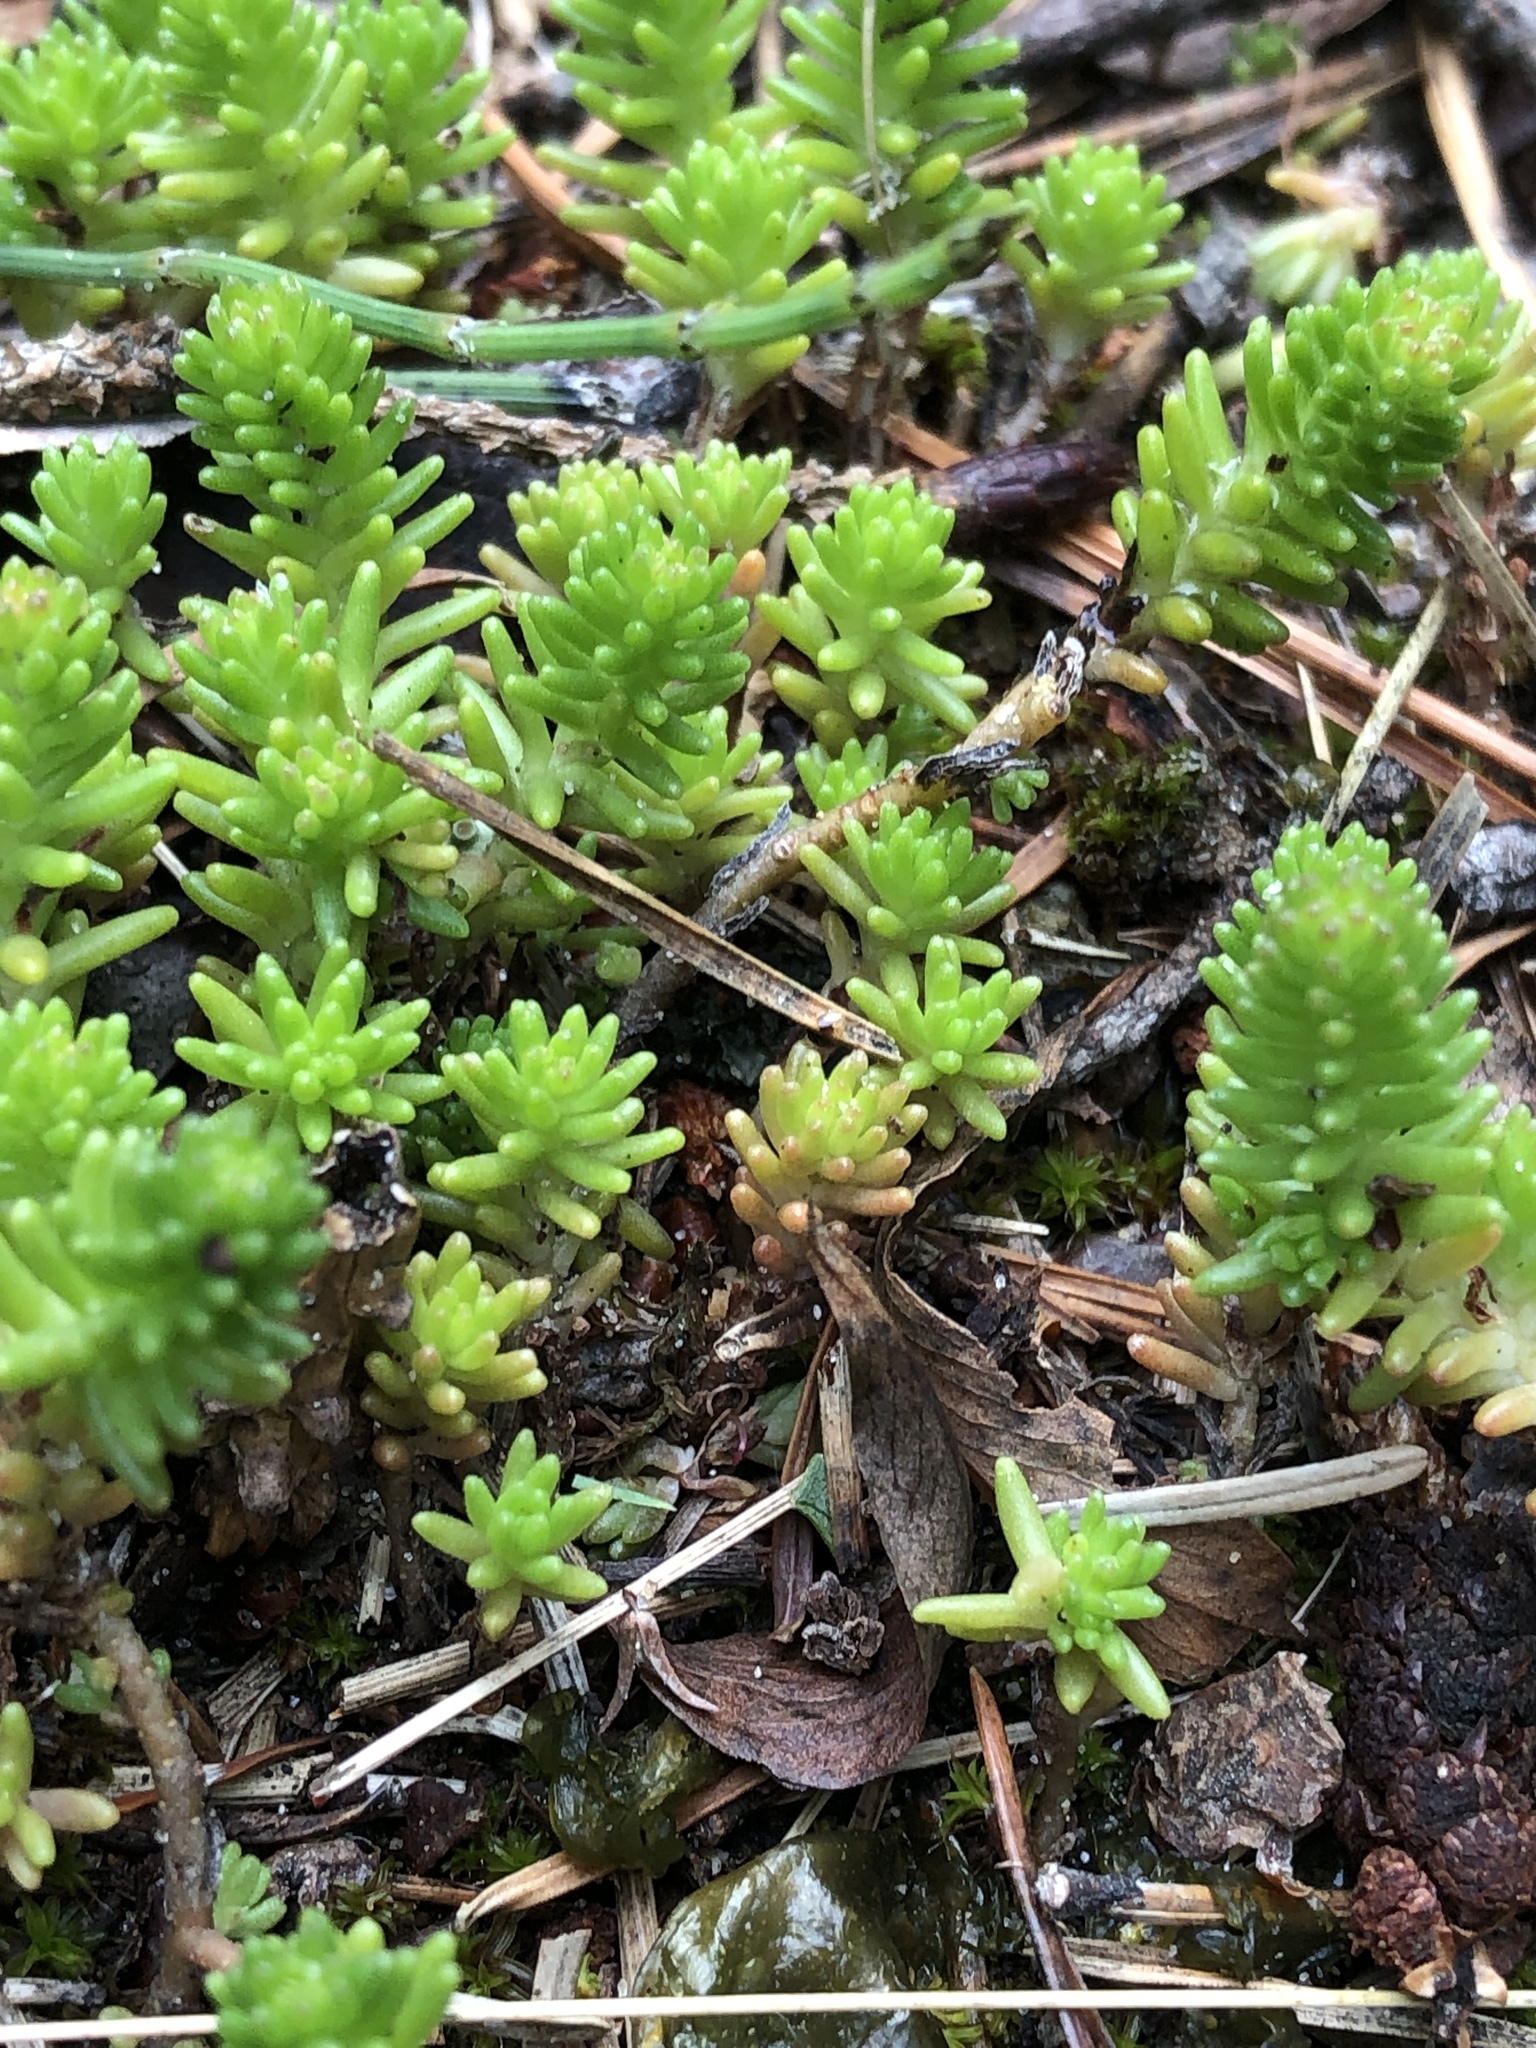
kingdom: Plantae
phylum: Tracheophyta
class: Magnoliopsida
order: Saxifragales
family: Crassulaceae
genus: Sedum
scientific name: Sedum sexangulare
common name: Tasteless stonecrop
